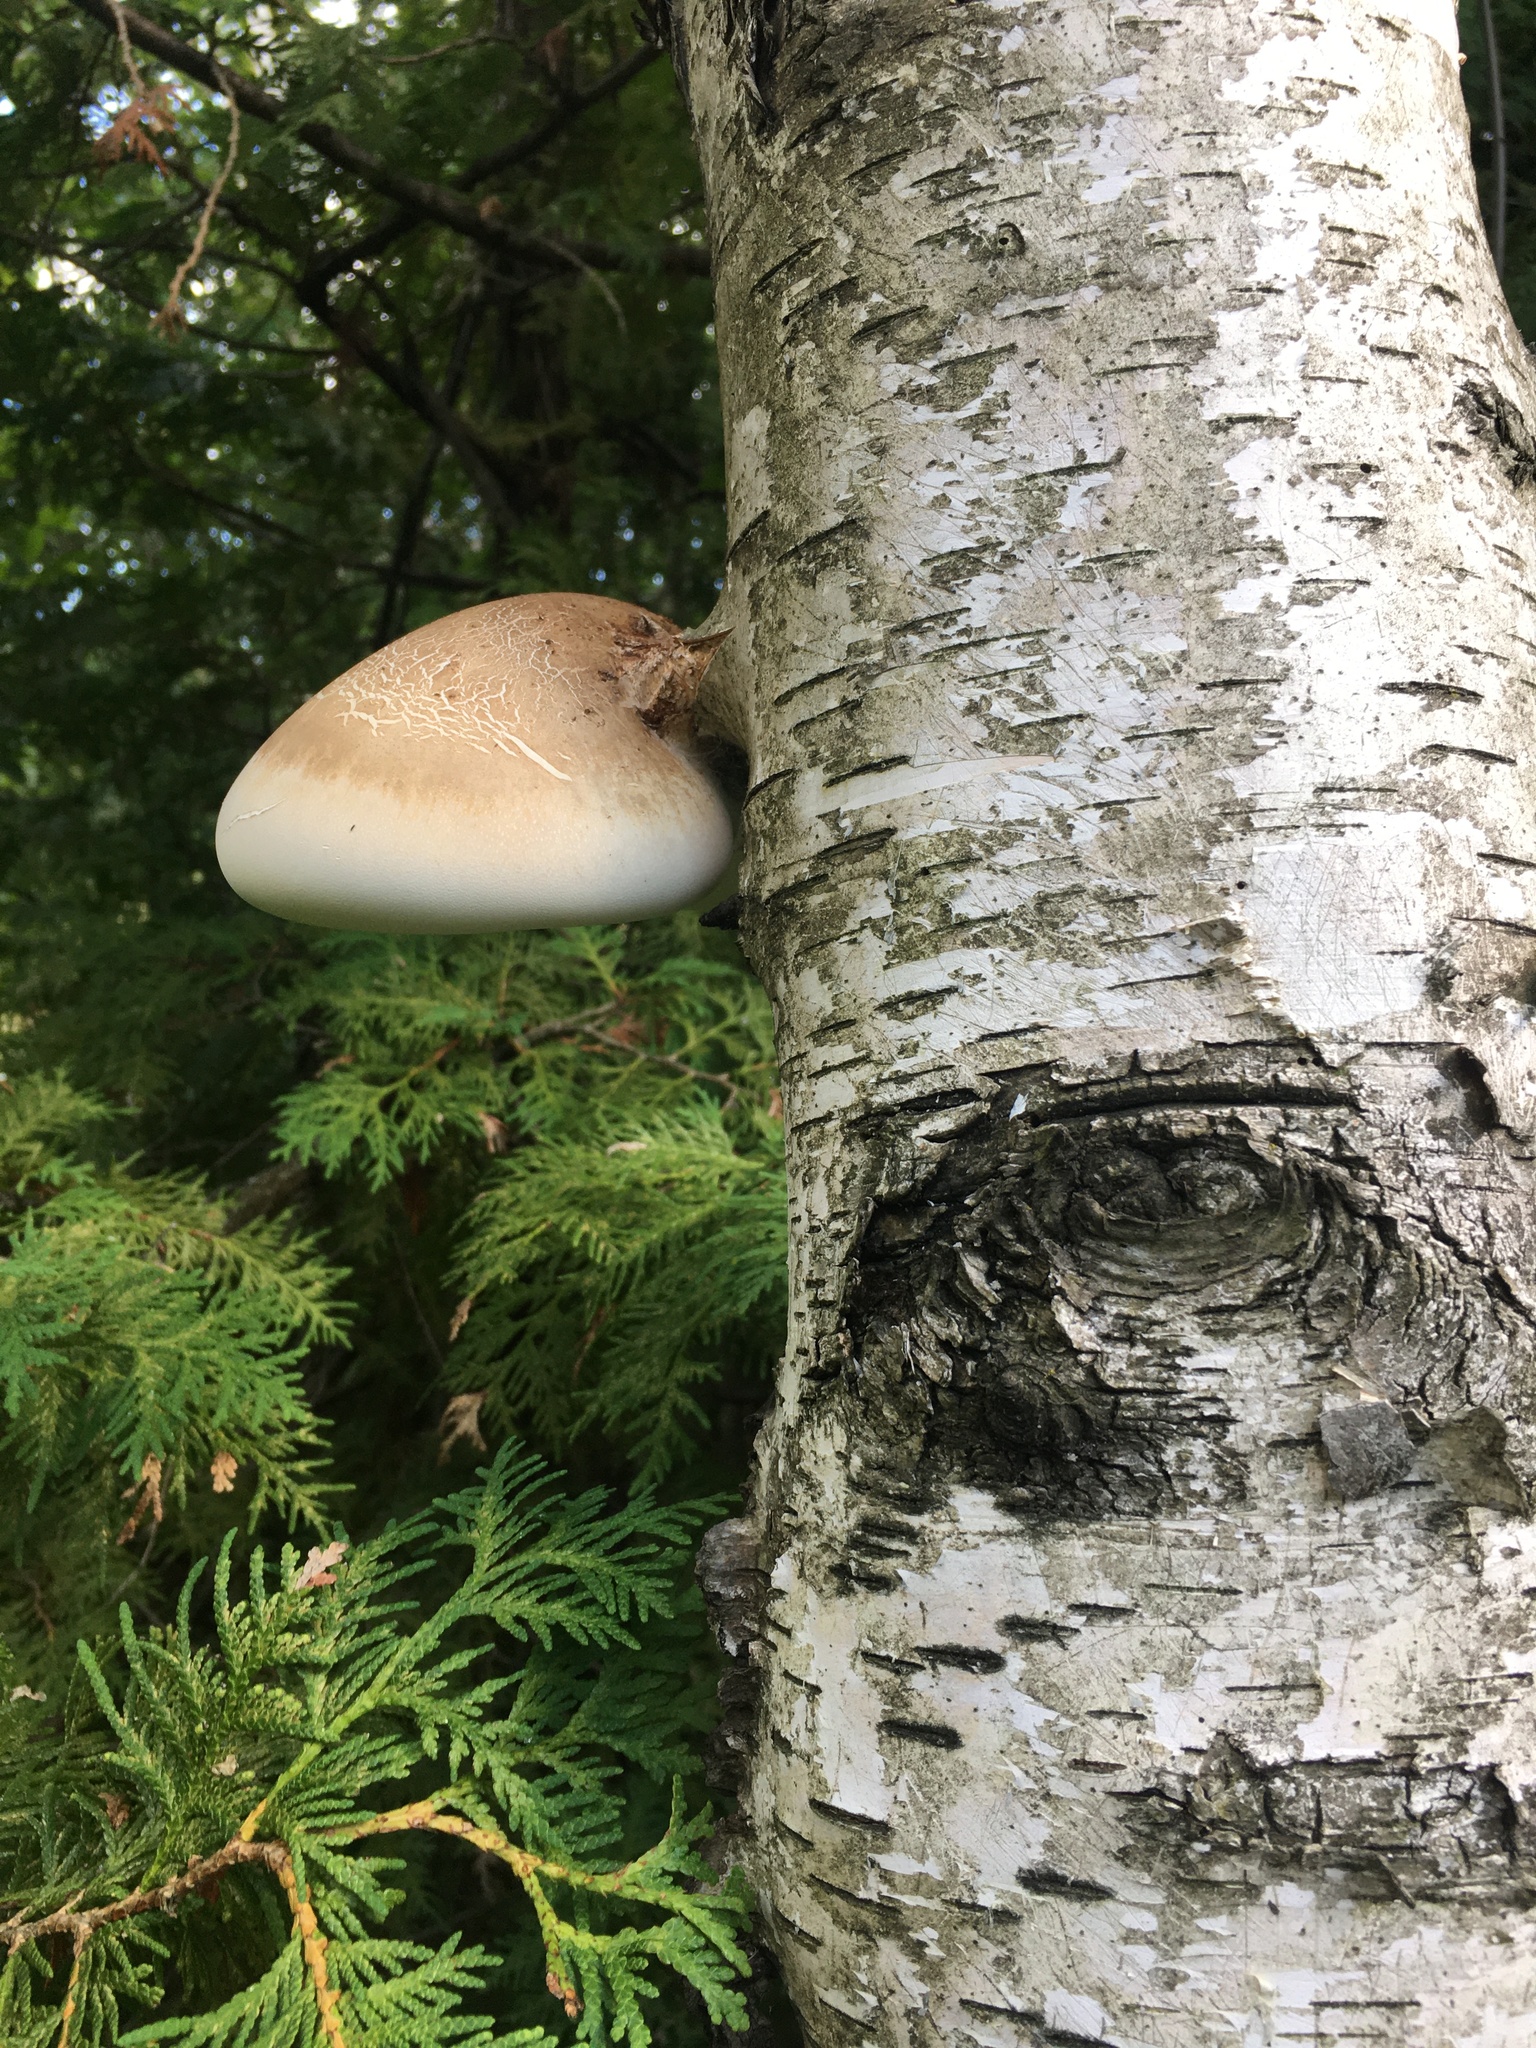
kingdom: Fungi
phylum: Basidiomycota
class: Agaricomycetes
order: Polyporales
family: Fomitopsidaceae
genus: Fomitopsis
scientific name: Fomitopsis betulina
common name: Birch polypore
